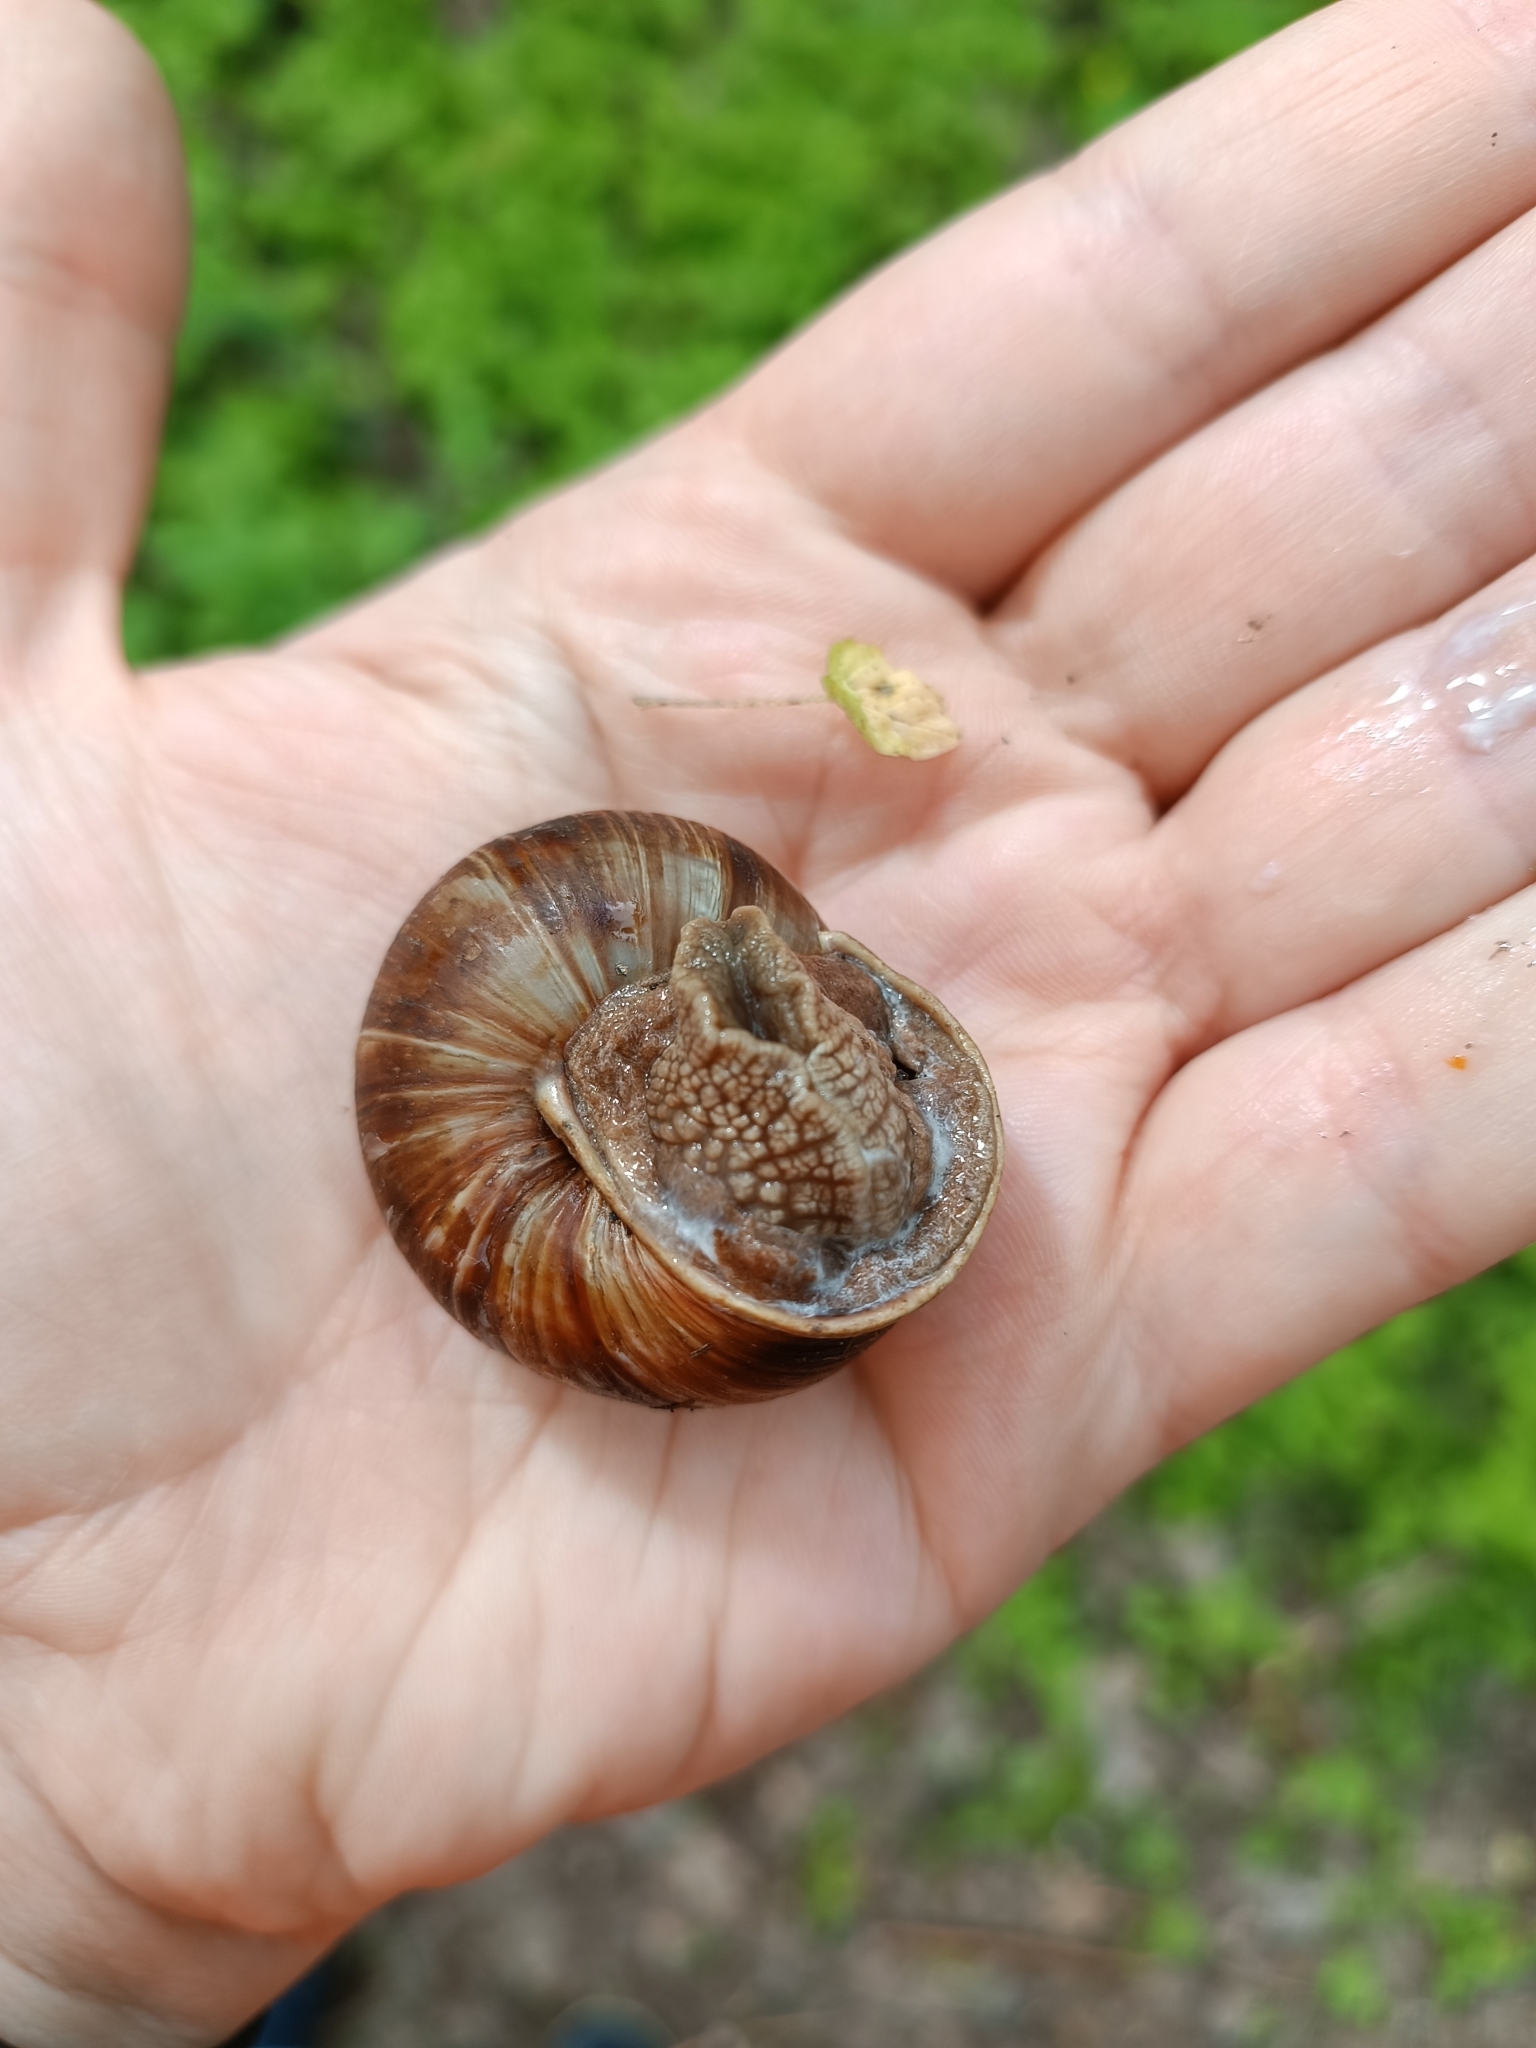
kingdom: Animalia
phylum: Mollusca
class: Gastropoda
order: Stylommatophora
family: Helicidae
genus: Helix
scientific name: Helix lucorum
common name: Turkish snail
